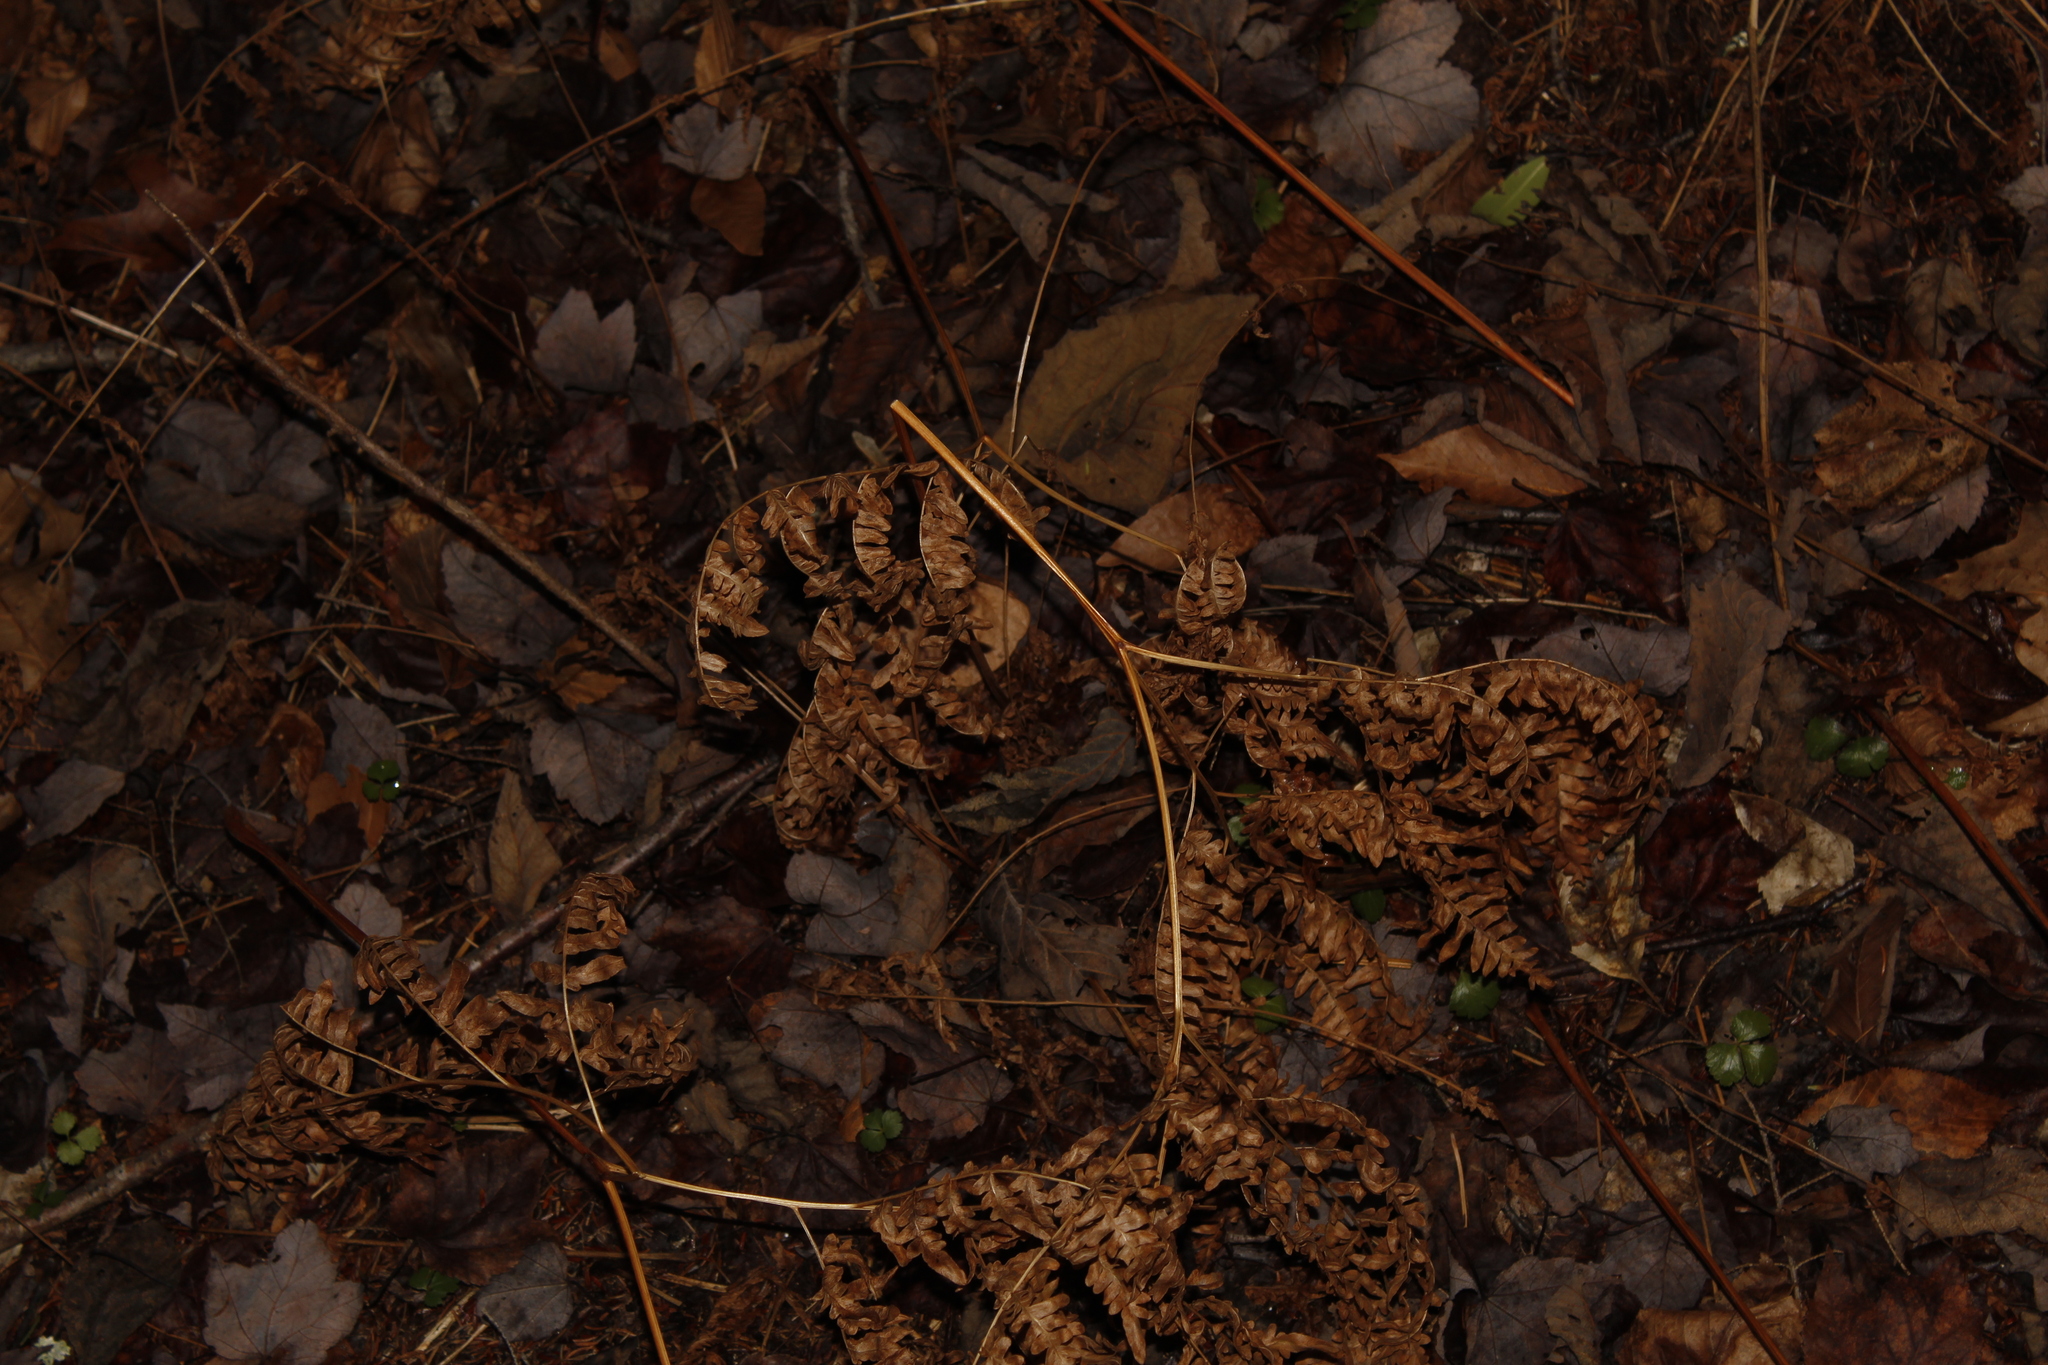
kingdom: Plantae
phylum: Tracheophyta
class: Polypodiopsida
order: Polypodiales
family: Dennstaedtiaceae
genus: Pteridium
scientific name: Pteridium aquilinum
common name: Bracken
